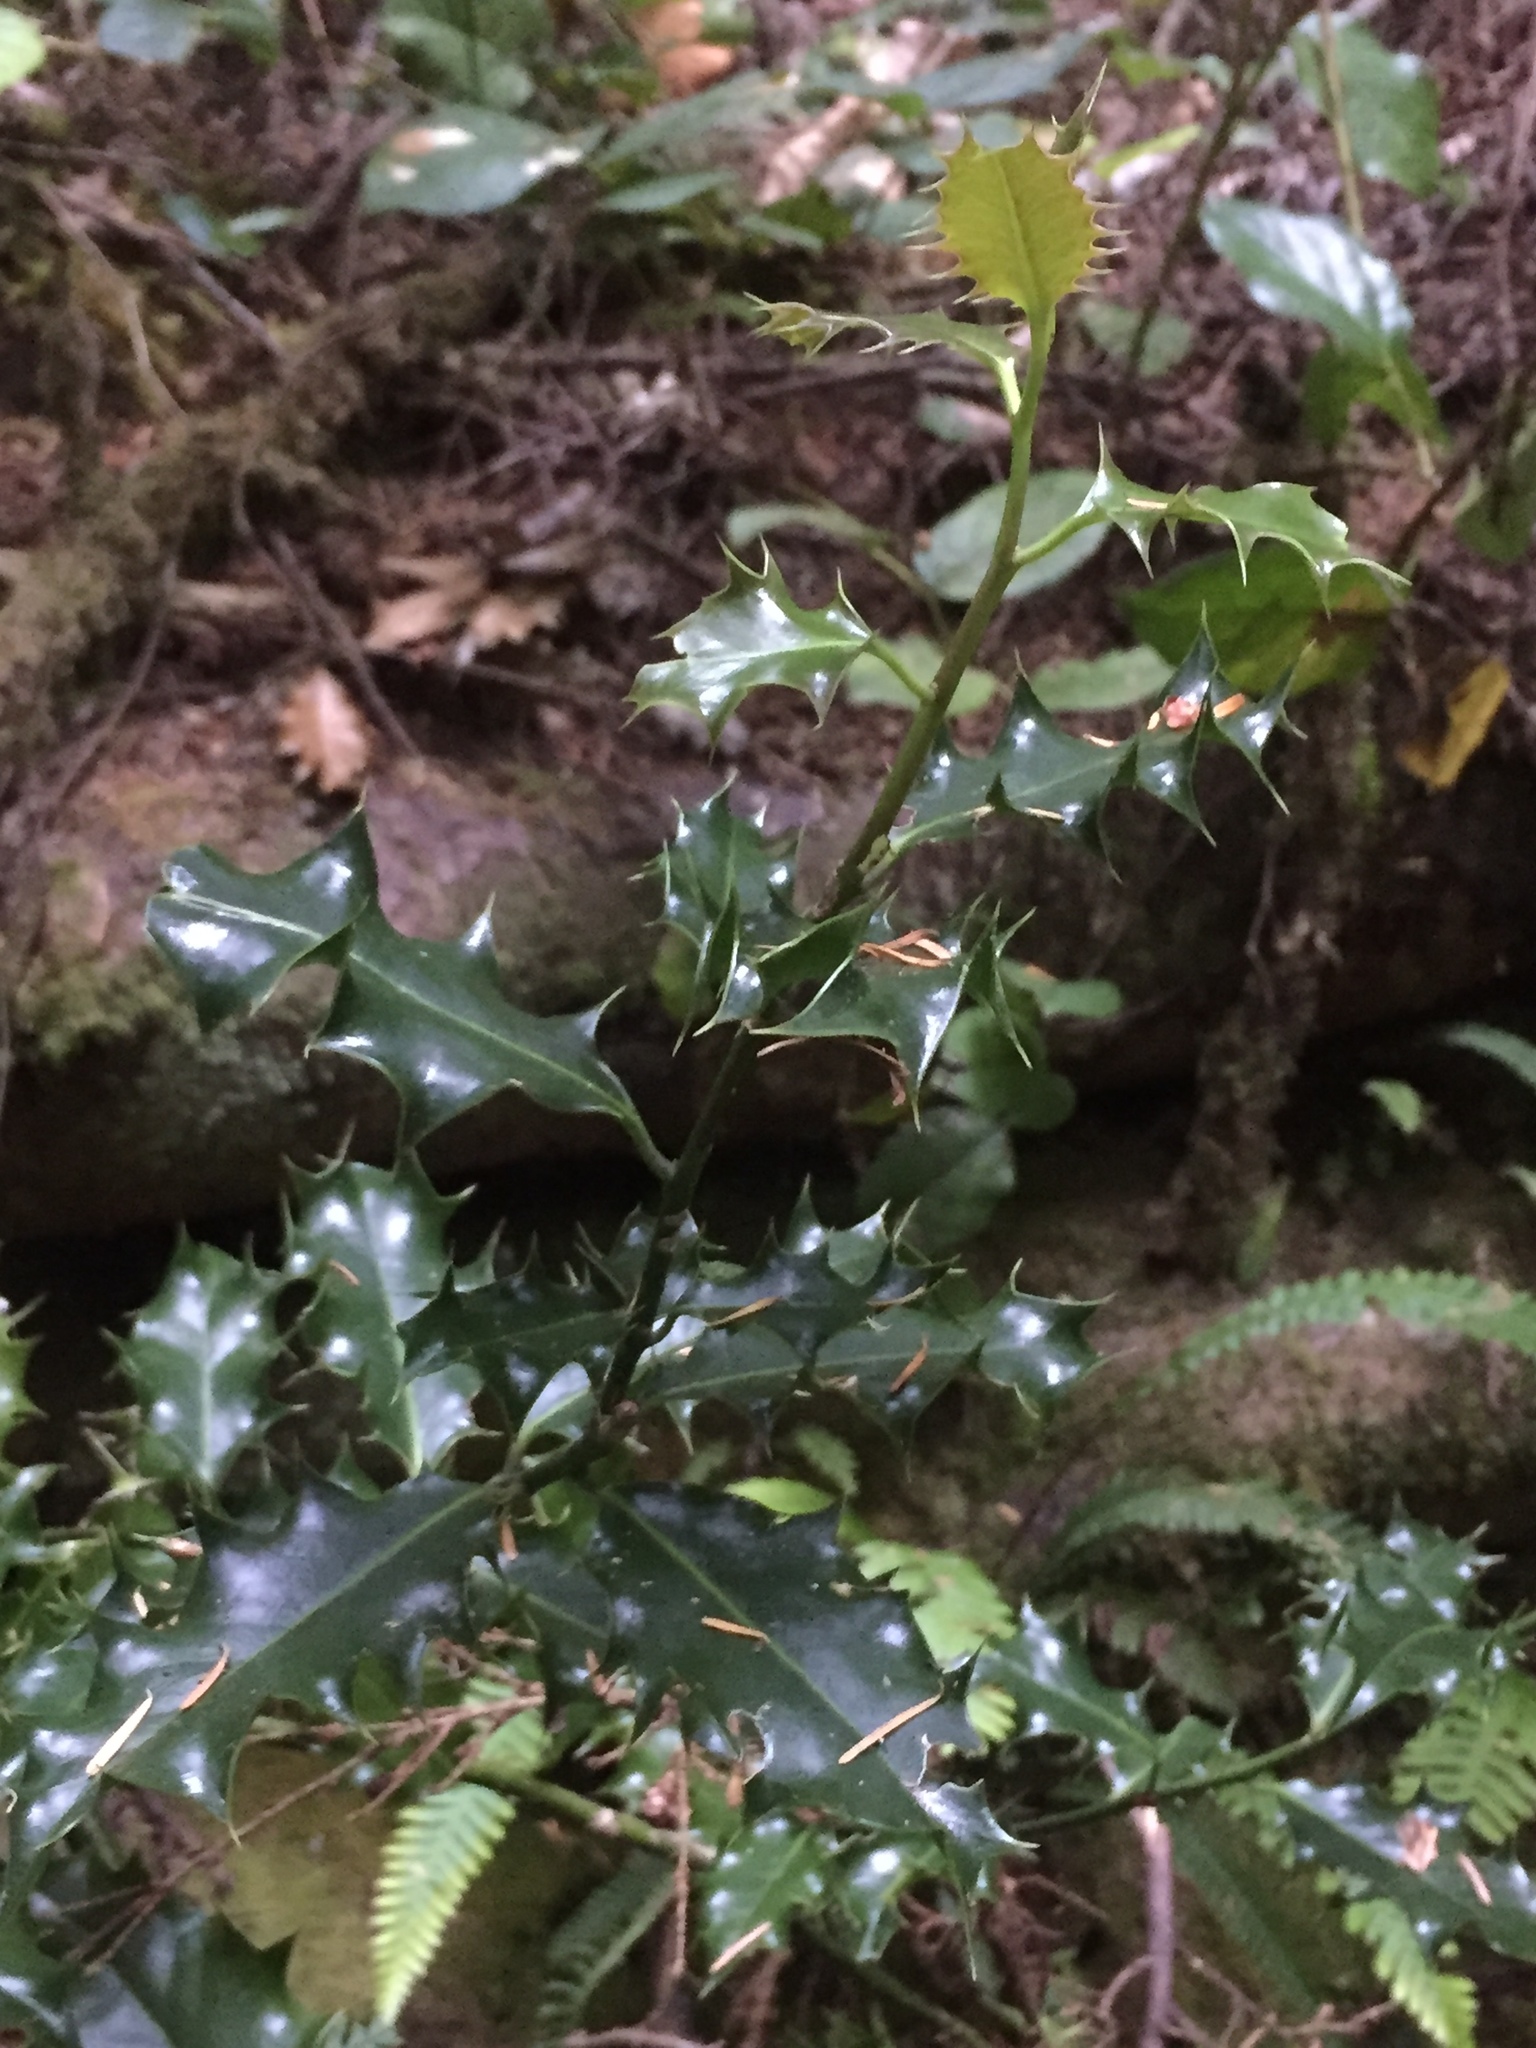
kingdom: Plantae
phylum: Tracheophyta
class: Magnoliopsida
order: Aquifoliales
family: Aquifoliaceae
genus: Ilex
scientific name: Ilex aquifolium
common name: English holly
